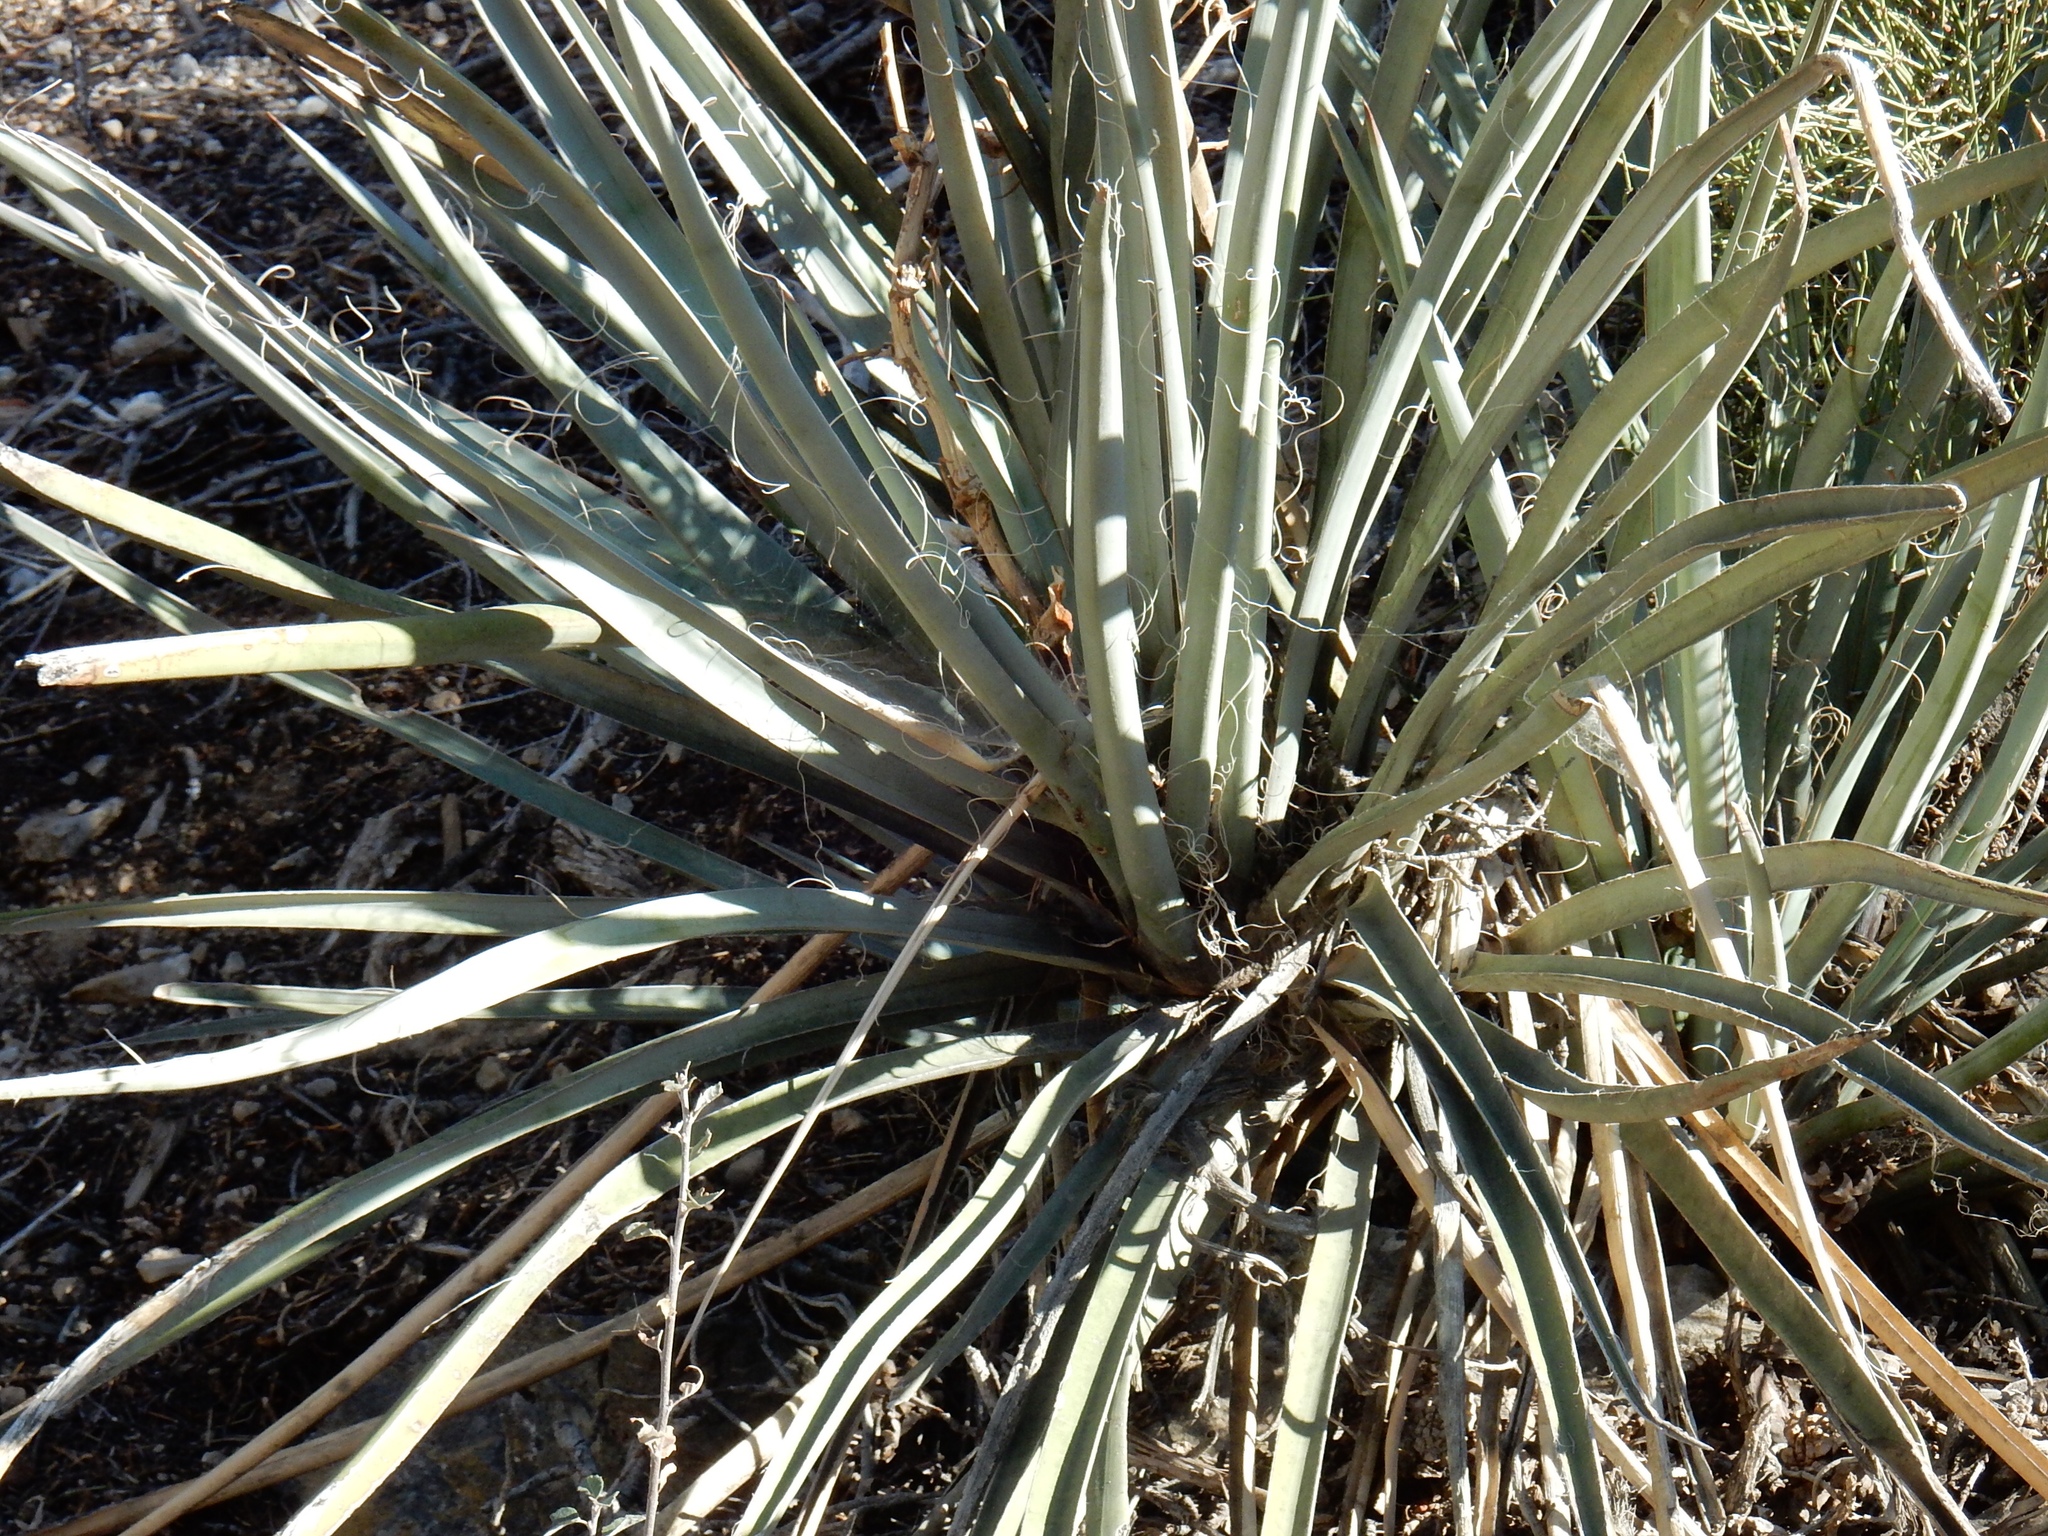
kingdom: Plantae
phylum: Tracheophyta
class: Liliopsida
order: Asparagales
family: Asparagaceae
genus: Yucca
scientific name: Yucca baccata
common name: Banana yucca
